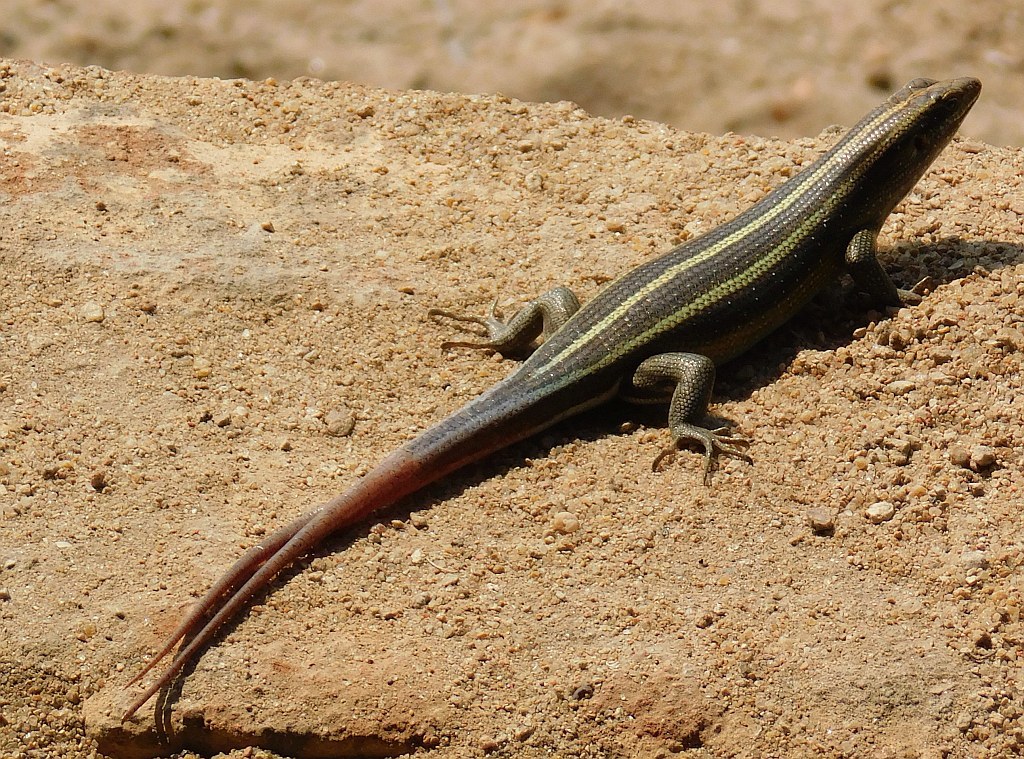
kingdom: Animalia
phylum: Chordata
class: Squamata
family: Scincidae
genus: Trachylepis
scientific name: Trachylepis margaritifera
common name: Rainbow skink
